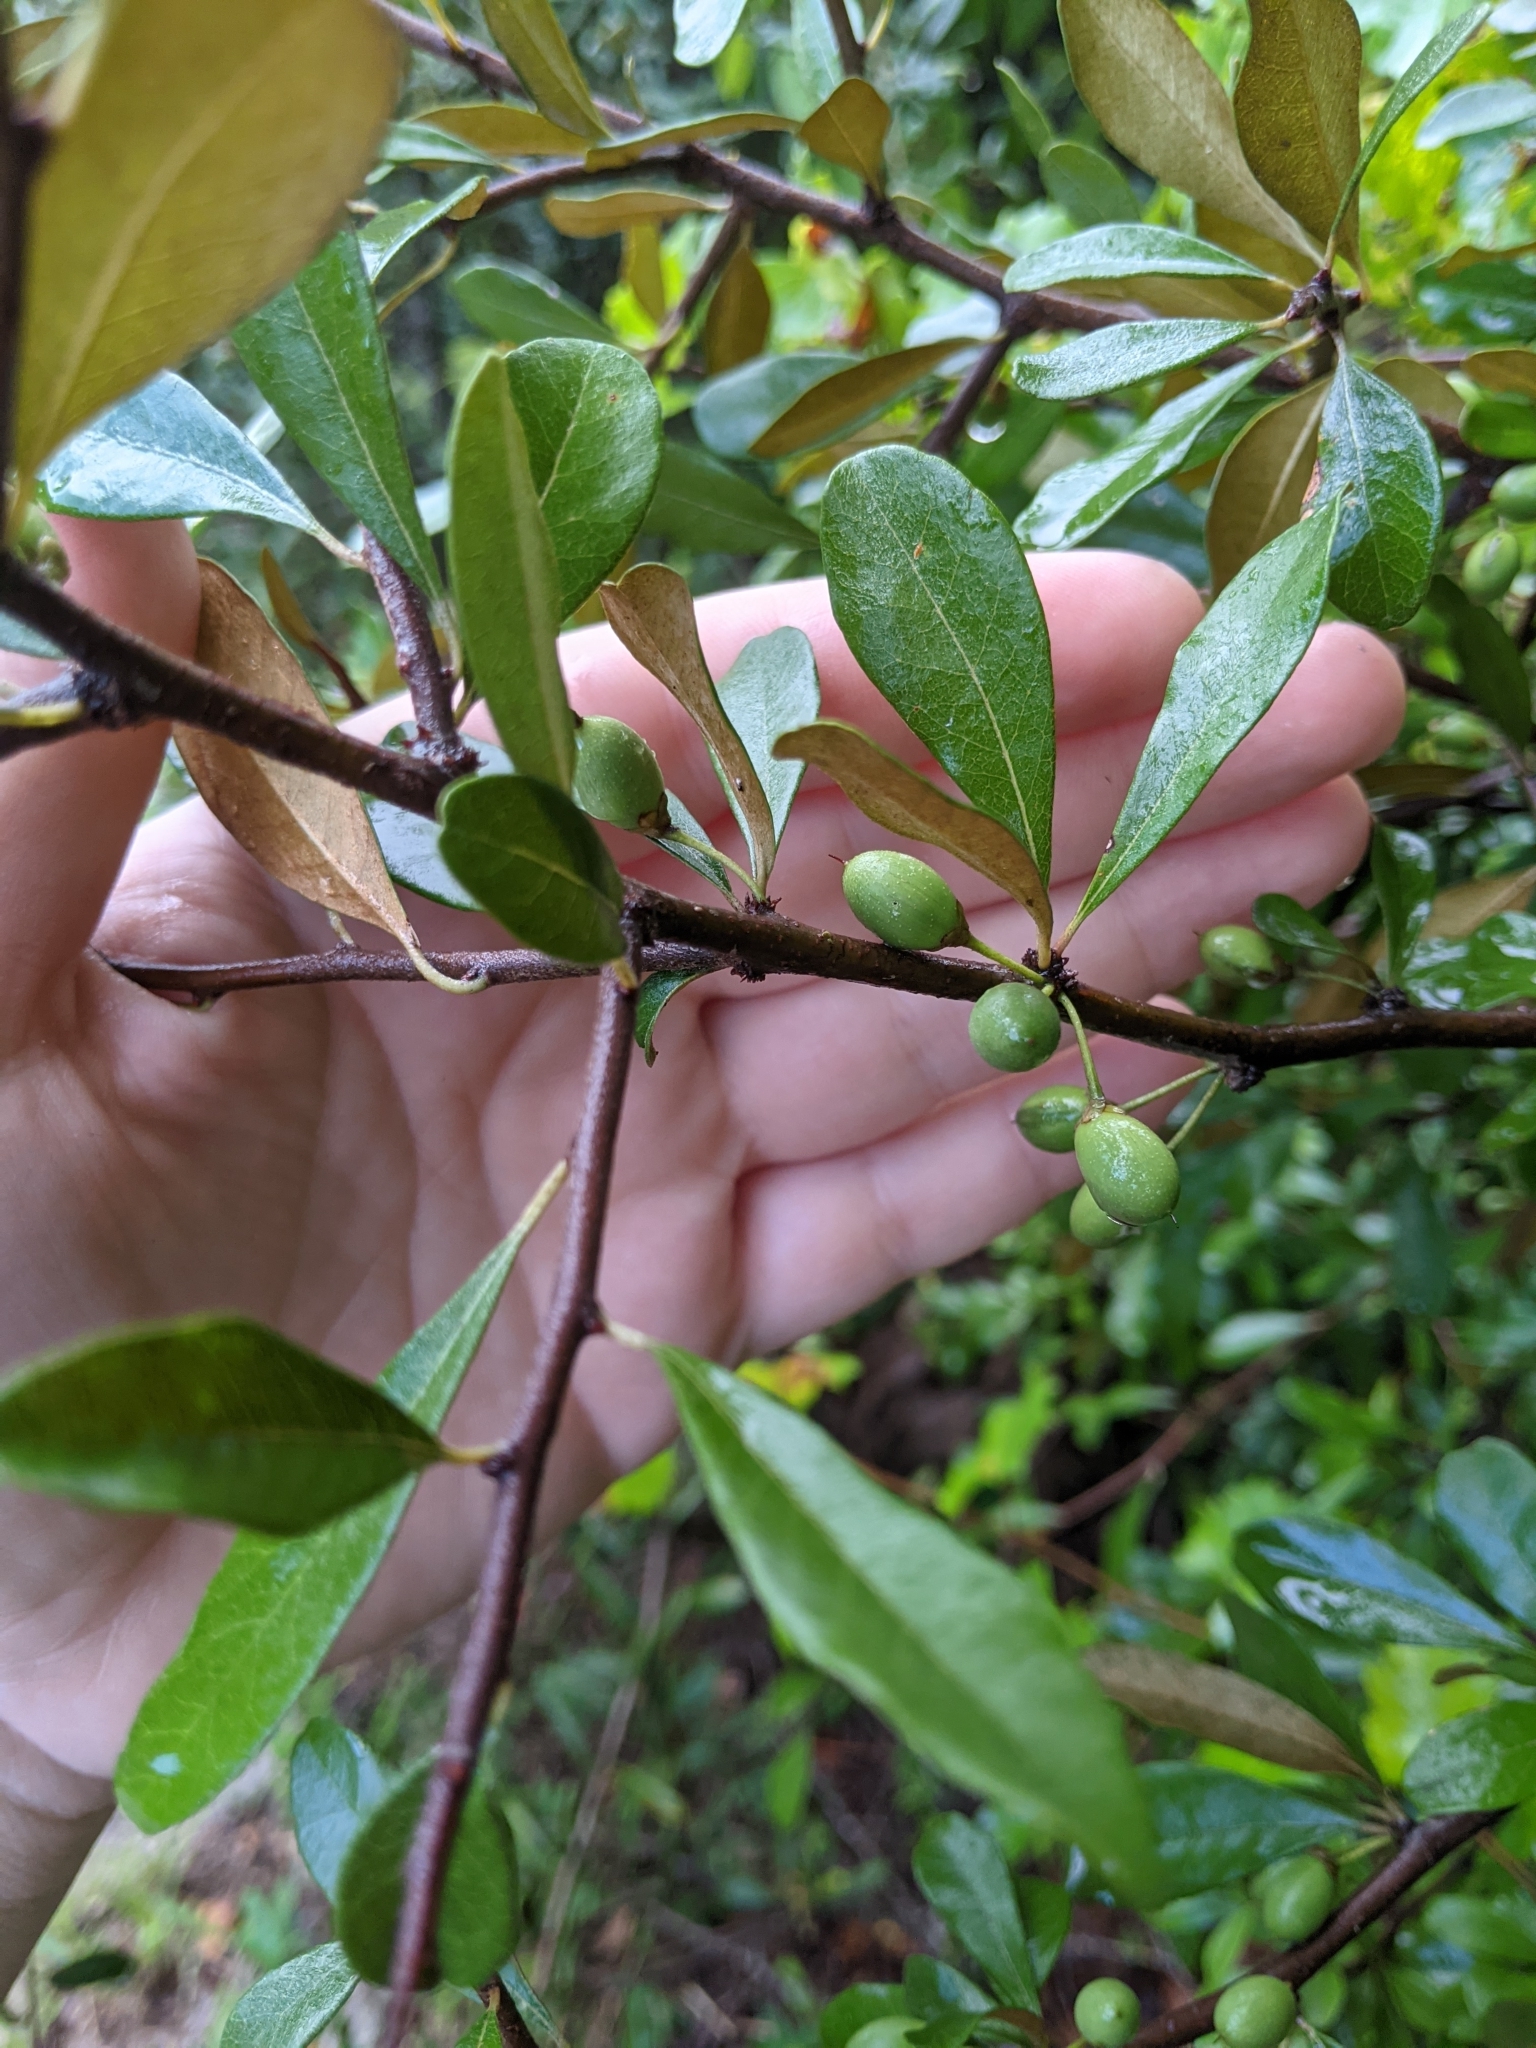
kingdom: Plantae
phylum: Tracheophyta
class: Magnoliopsida
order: Ericales
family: Sapotaceae
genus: Sideroxylon
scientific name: Sideroxylon tenax
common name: Tough-buckthorn
